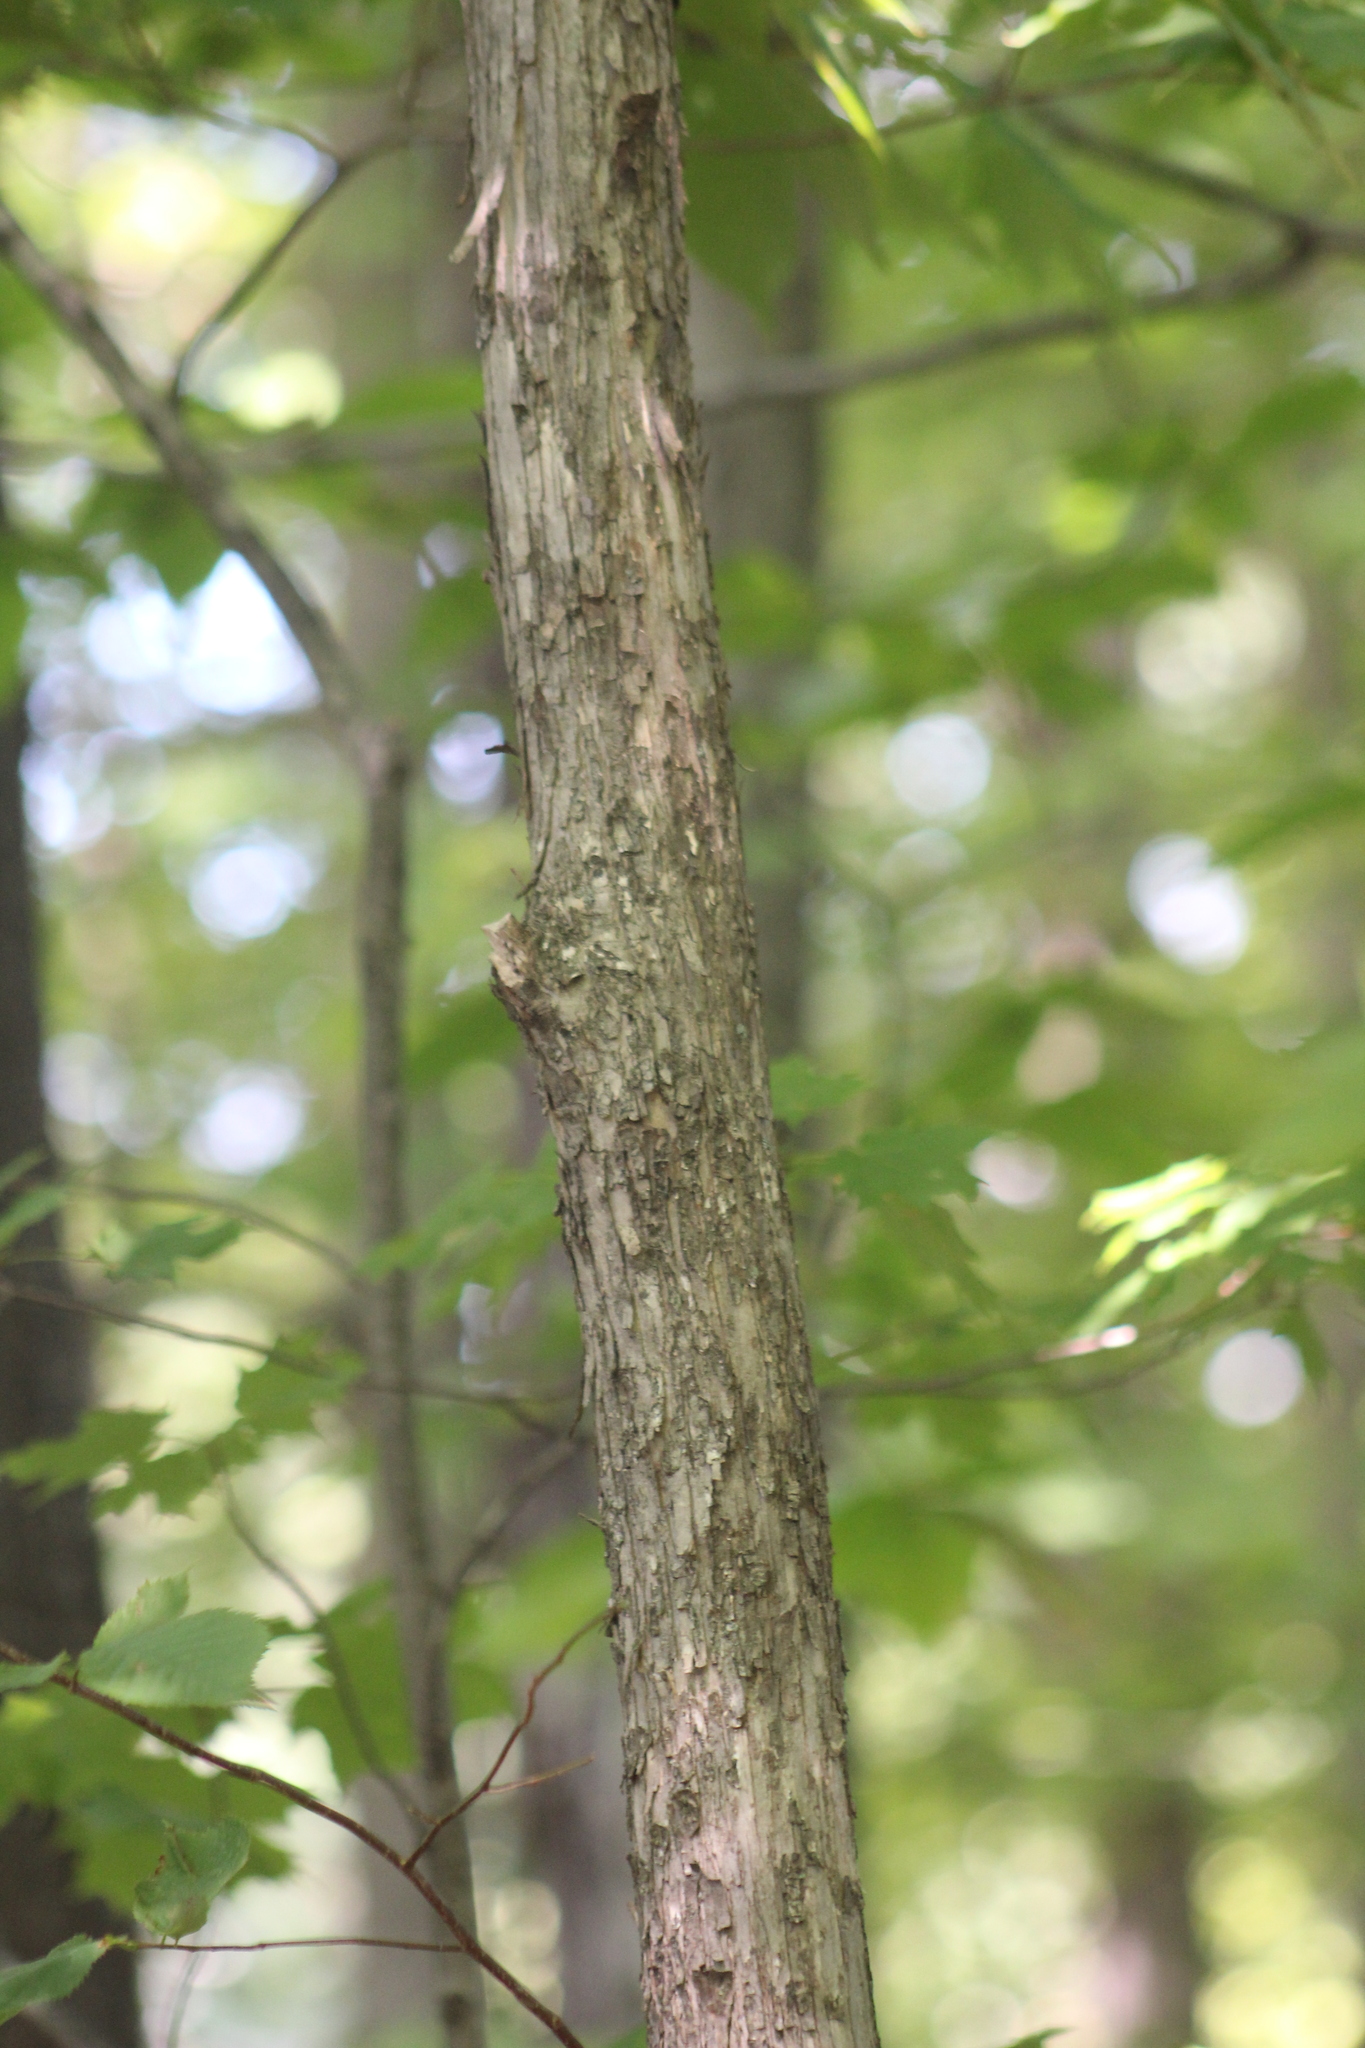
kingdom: Plantae
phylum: Tracheophyta
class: Magnoliopsida
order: Fagales
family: Betulaceae
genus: Ostrya
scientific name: Ostrya virginiana
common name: Ironwood
